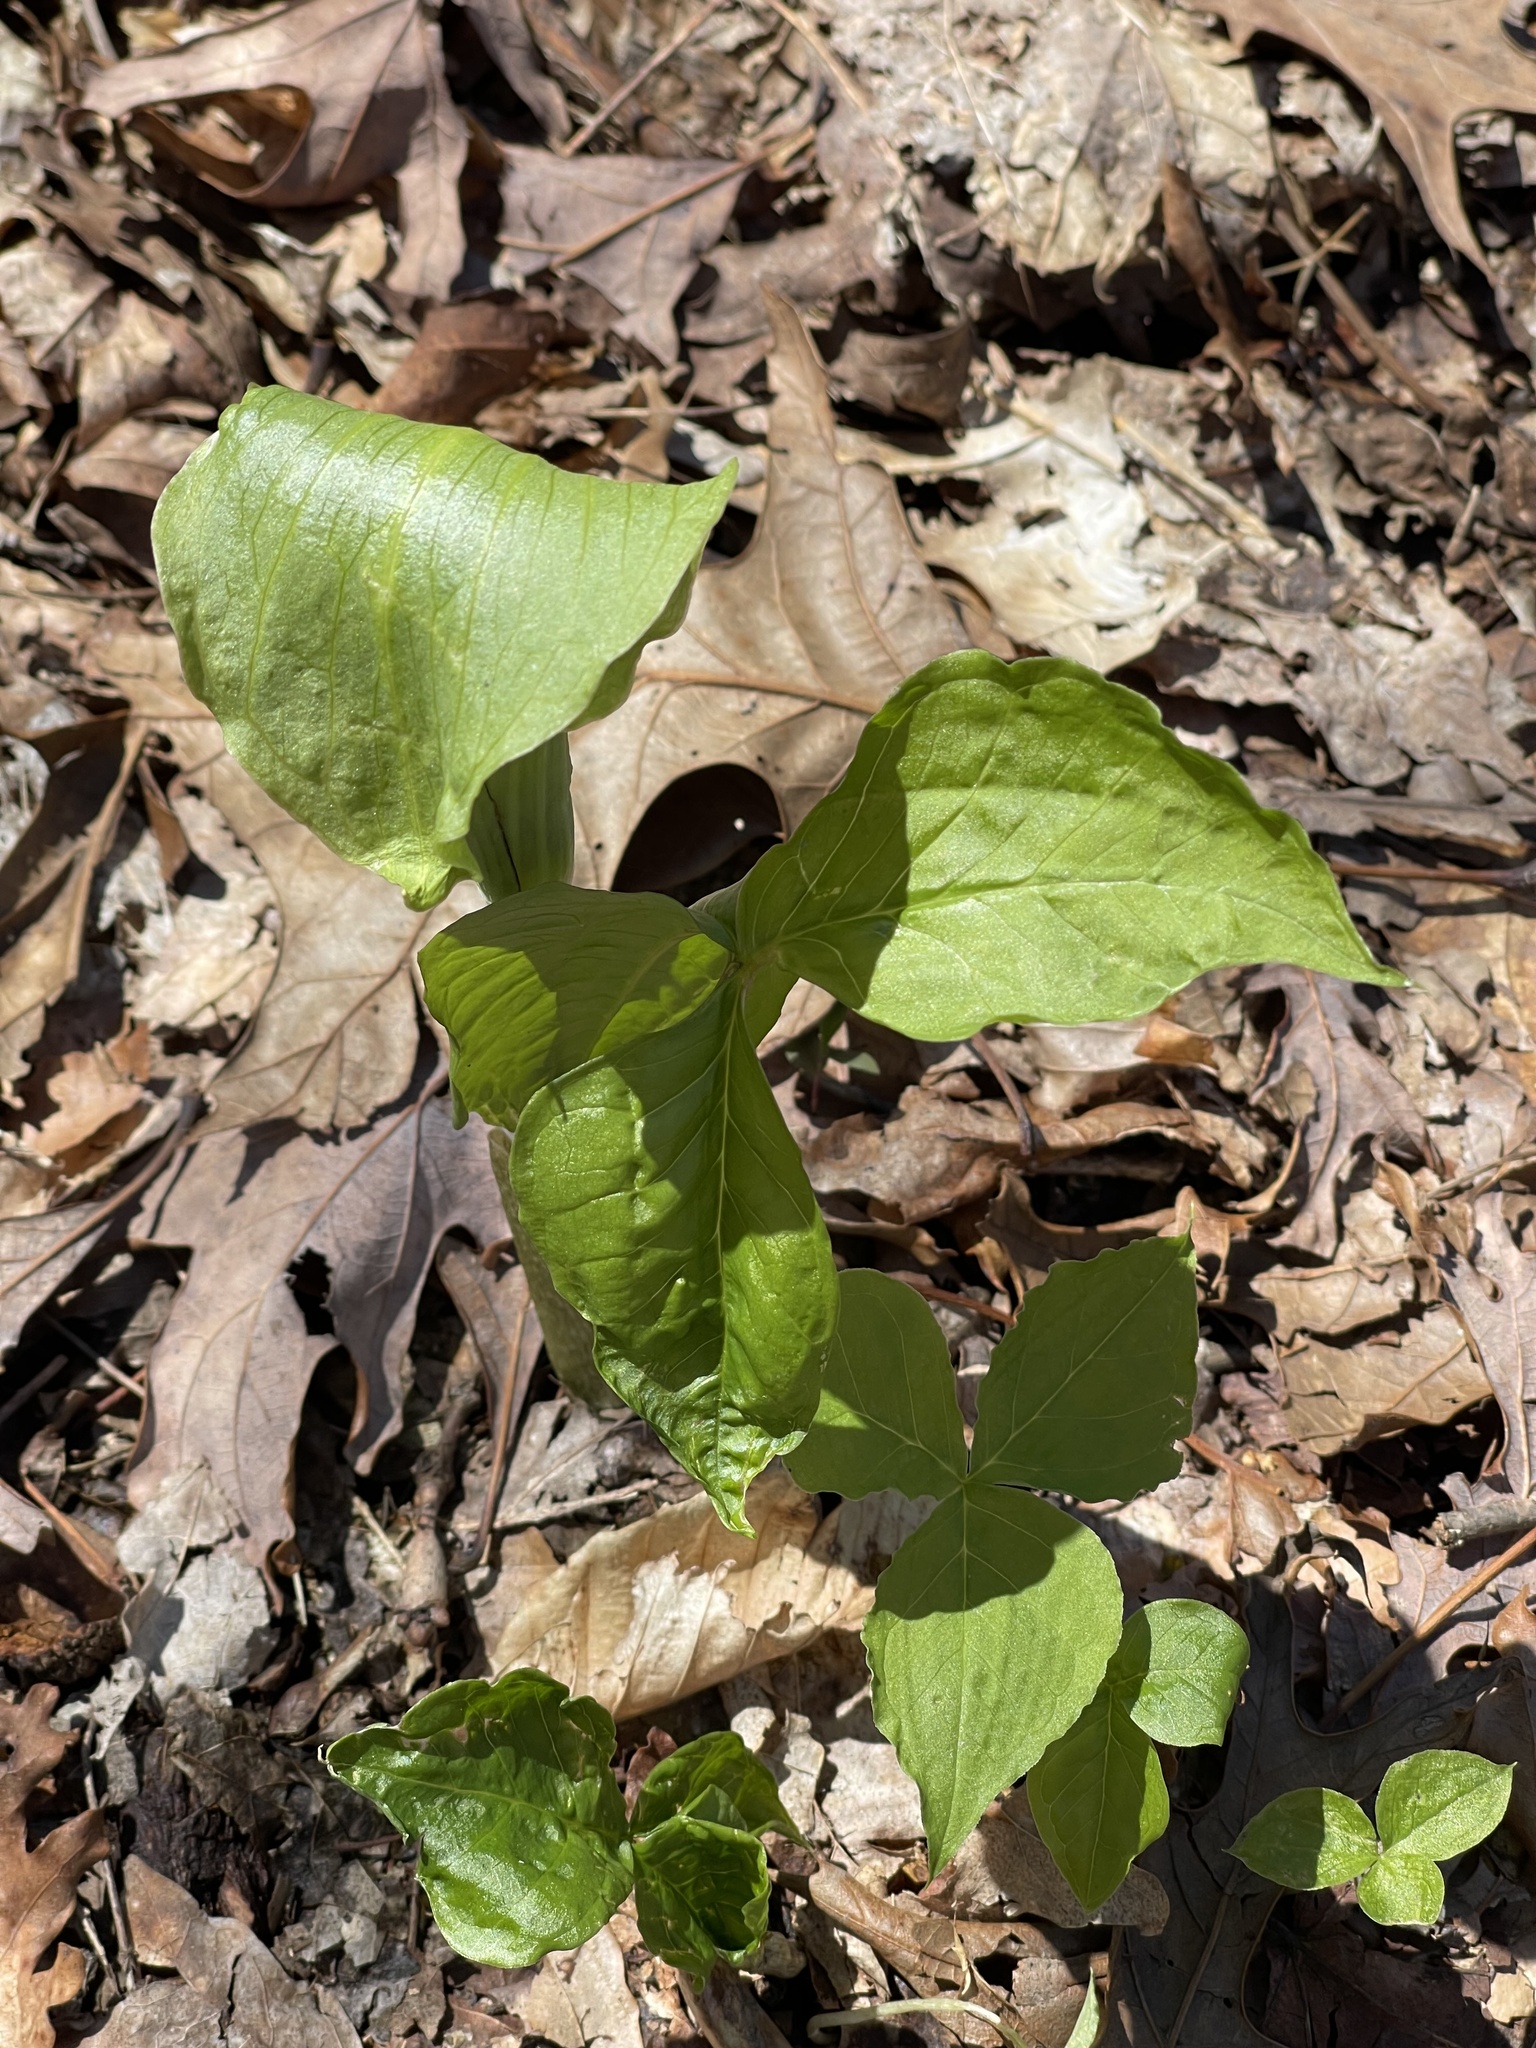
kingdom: Plantae
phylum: Tracheophyta
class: Liliopsida
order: Alismatales
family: Araceae
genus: Arisaema
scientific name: Arisaema triphyllum
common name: Jack-in-the-pulpit
